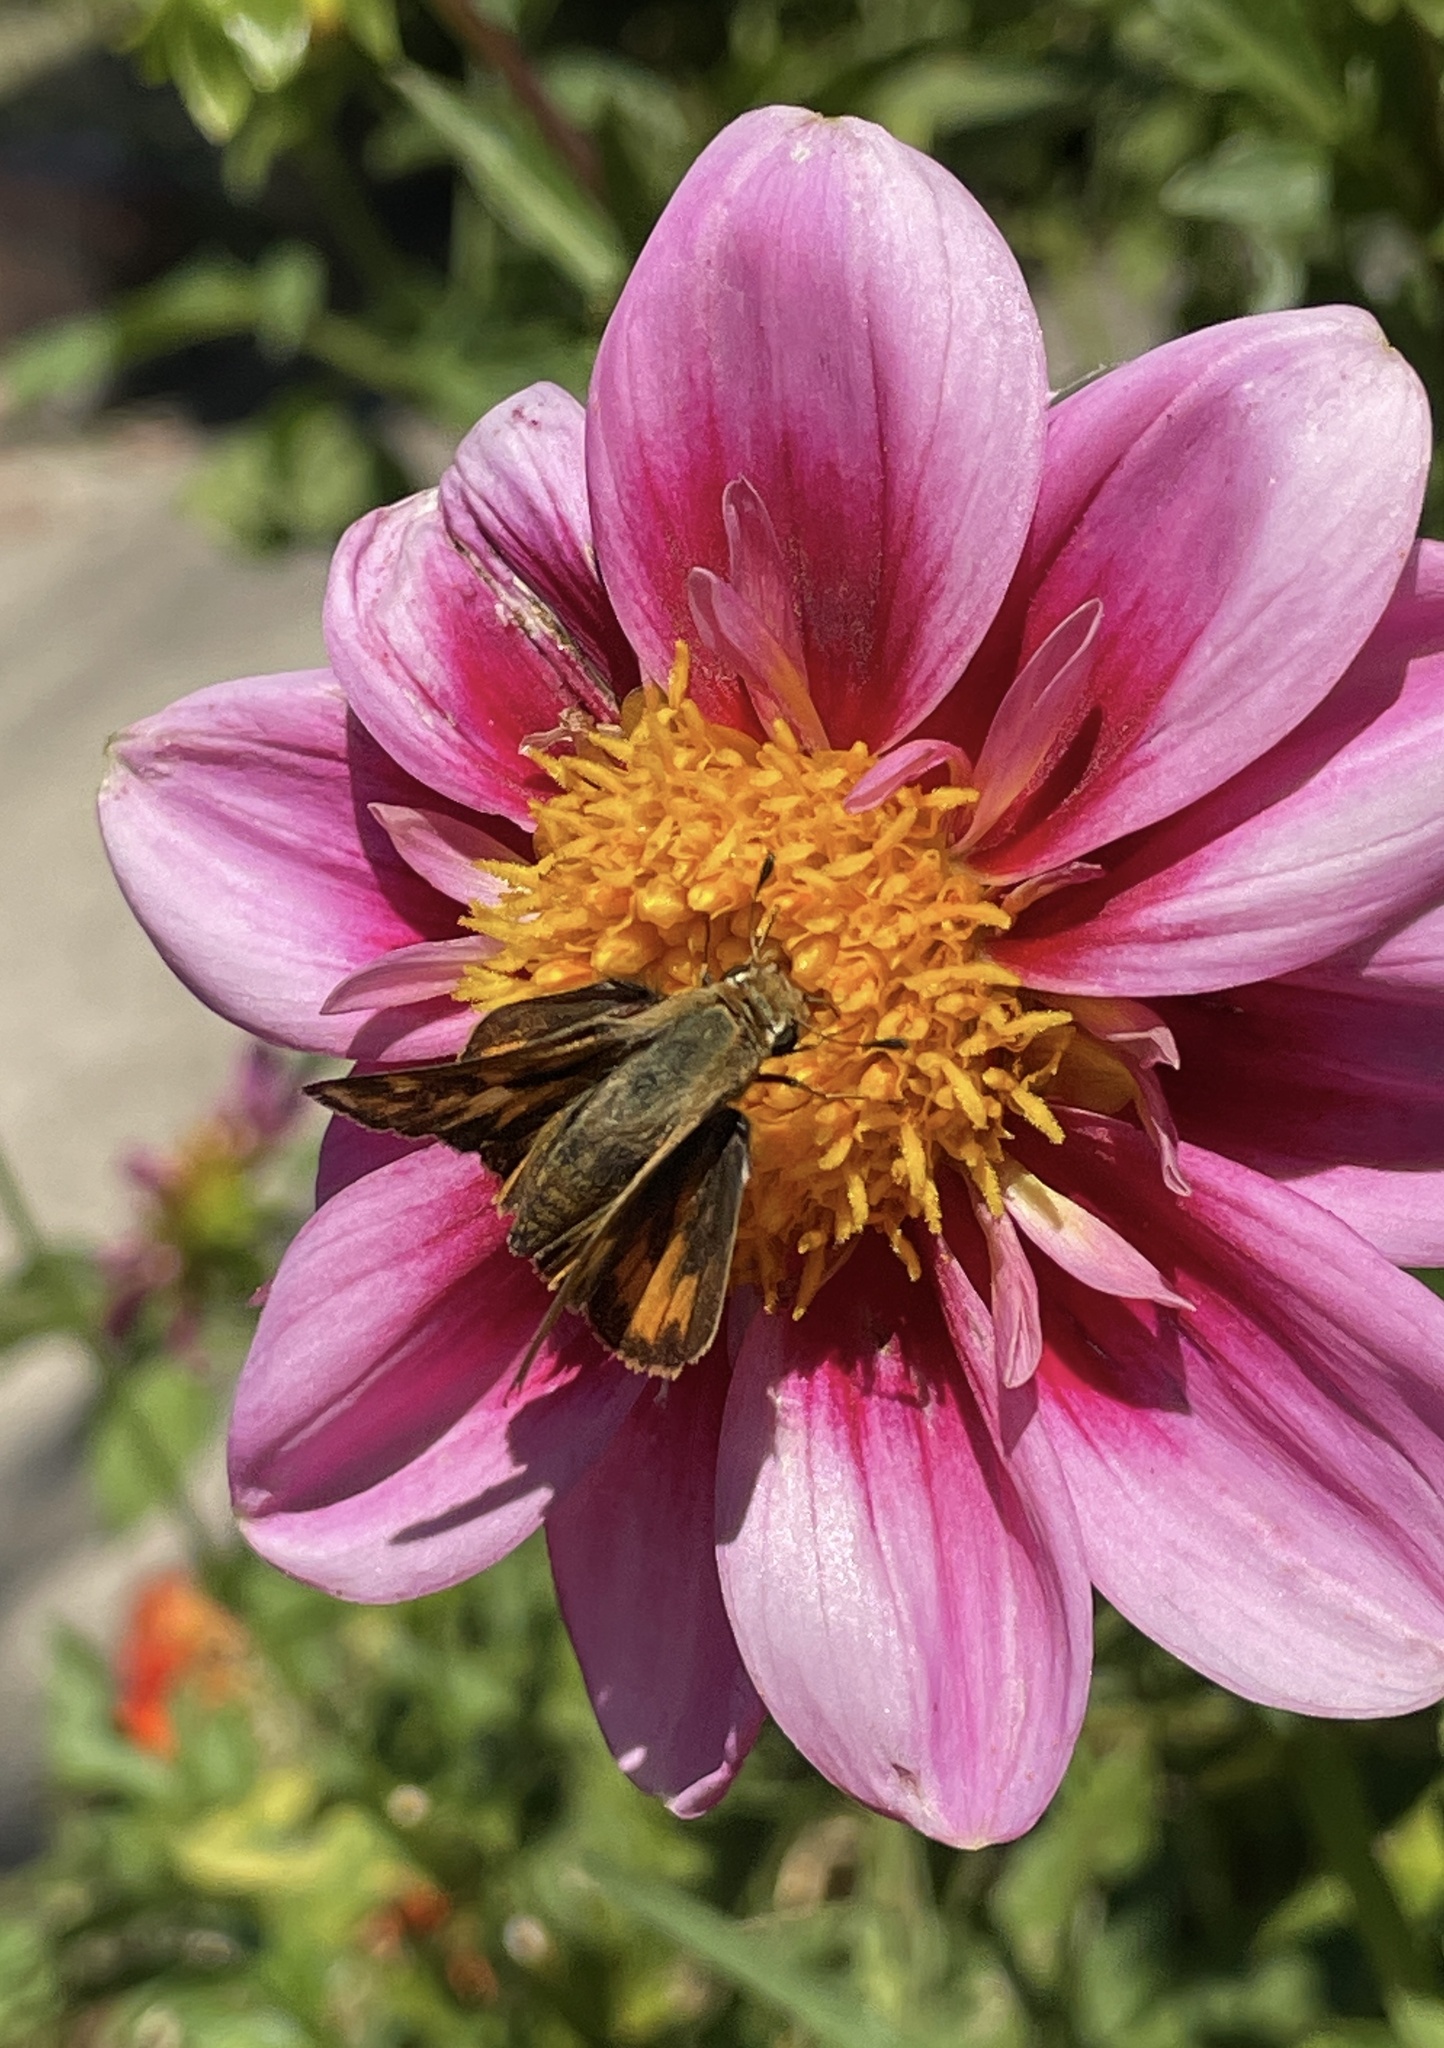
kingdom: Animalia
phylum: Arthropoda
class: Insecta
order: Lepidoptera
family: Hesperiidae
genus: Hylephila
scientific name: Hylephila phyleus
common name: Fiery skipper
